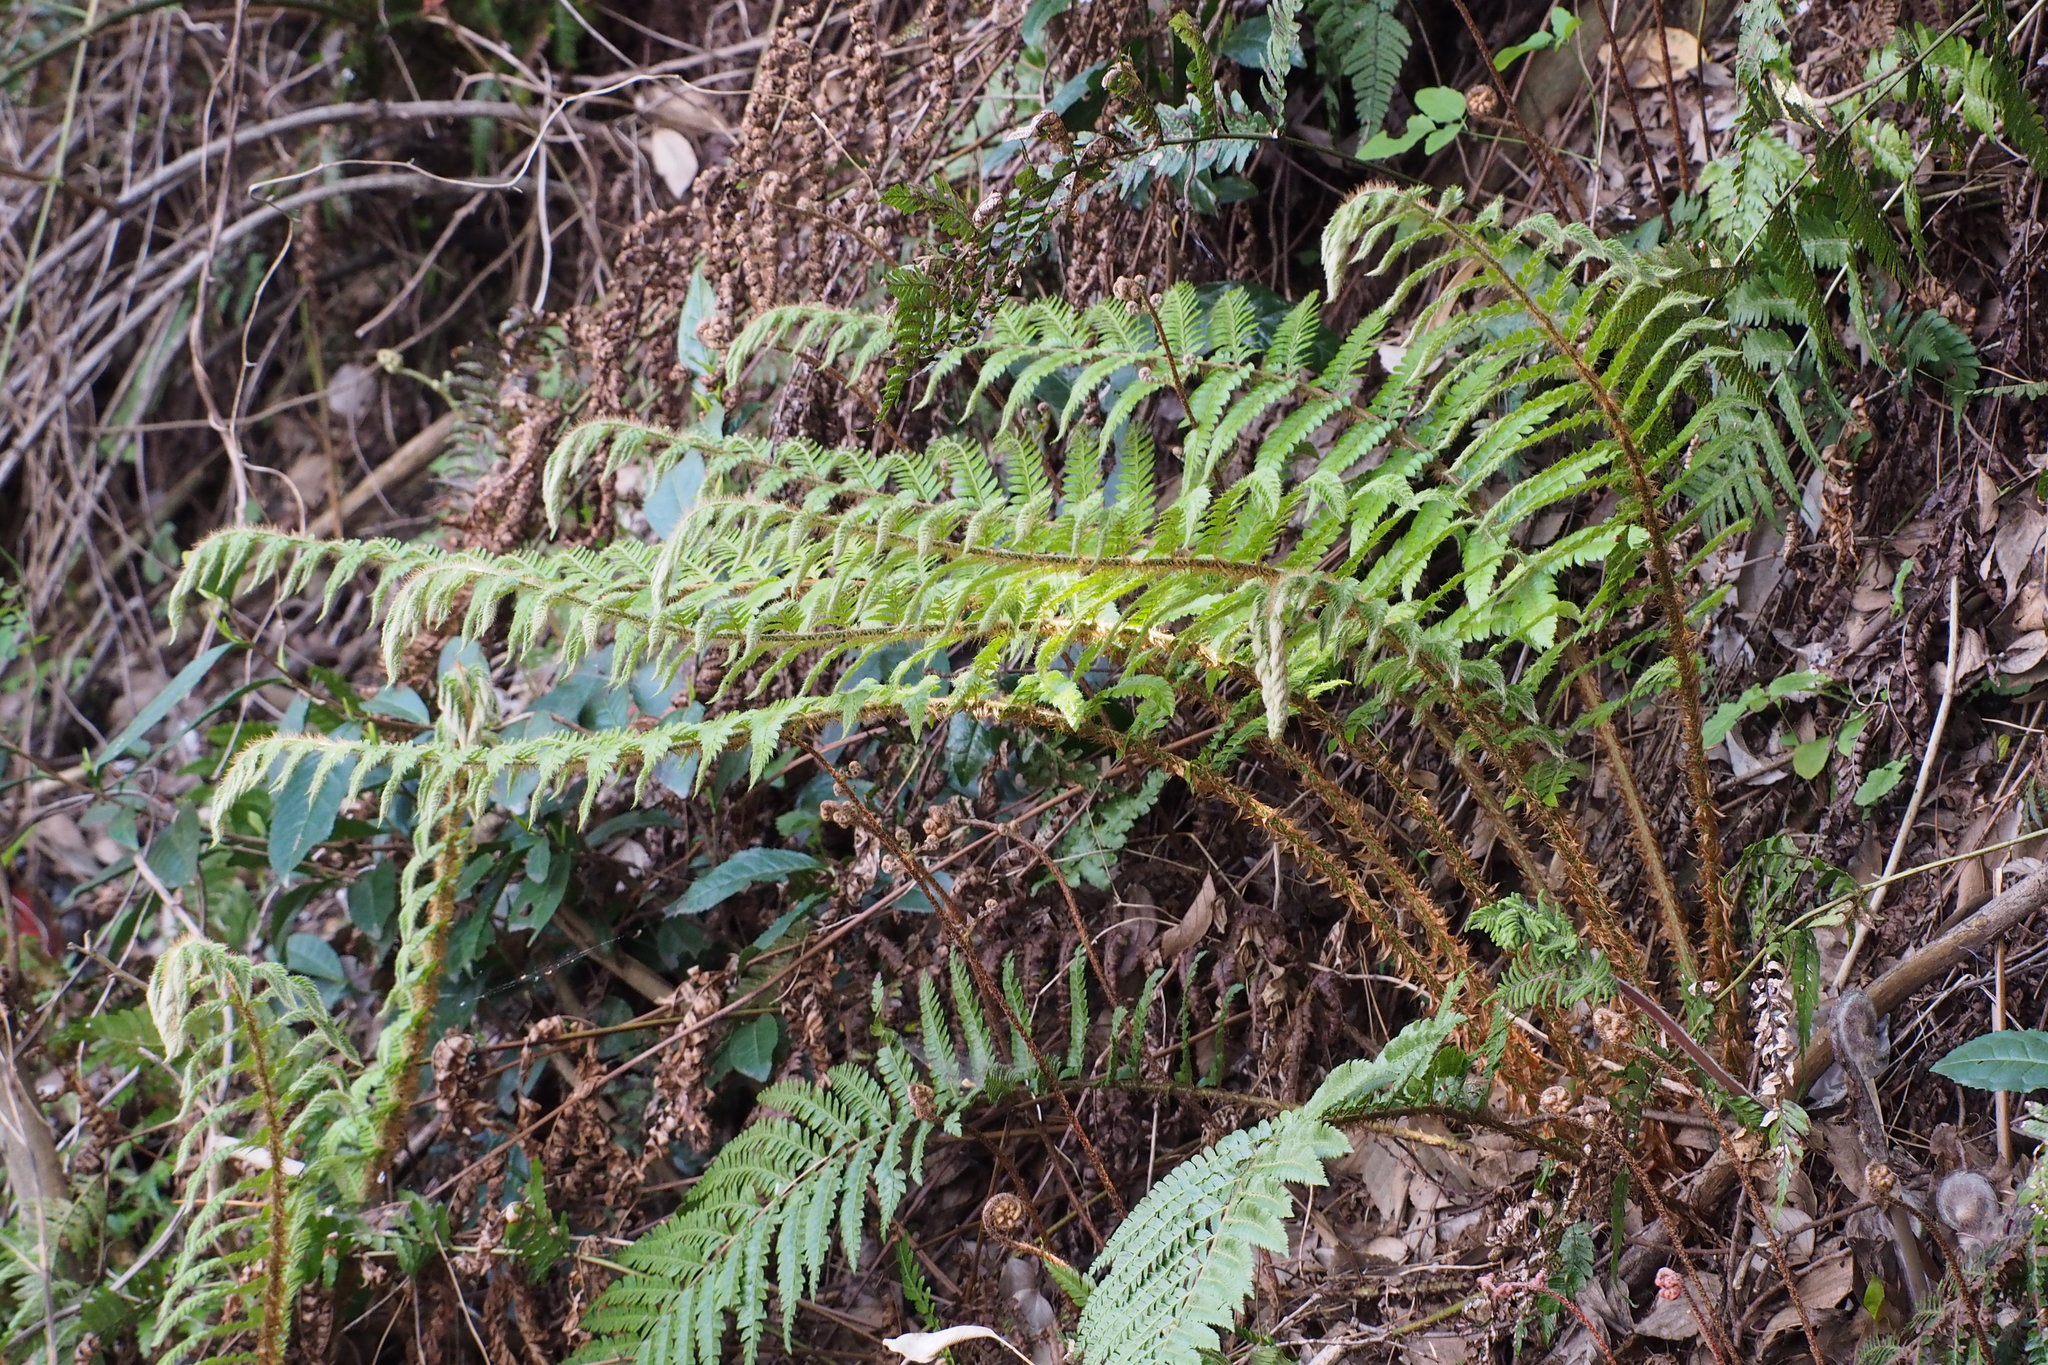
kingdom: Plantae
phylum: Tracheophyta
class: Polypodiopsida
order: Polypodiales
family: Dryopteridaceae
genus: Polystichum
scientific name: Polystichum luctuosum
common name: Korean rockfern
